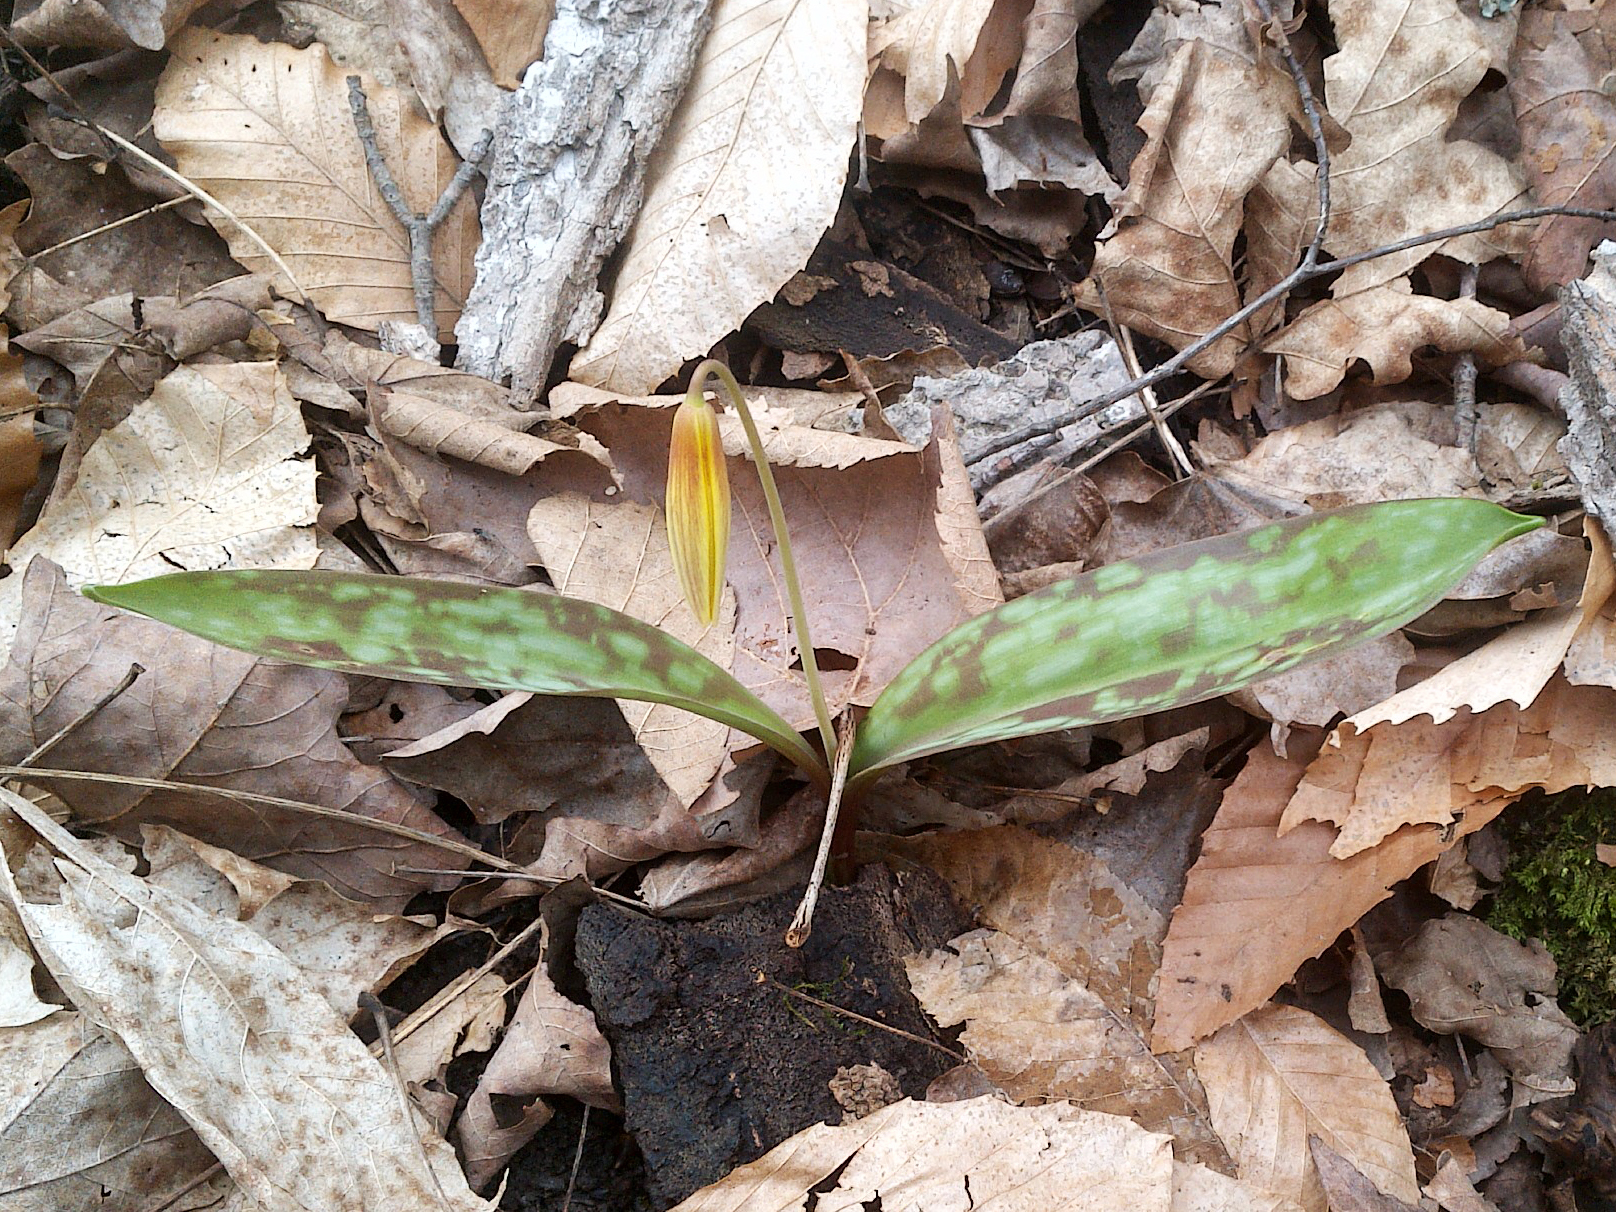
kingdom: Plantae
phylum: Tracheophyta
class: Liliopsida
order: Liliales
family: Liliaceae
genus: Erythronium
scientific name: Erythronium americanum
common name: Yellow adder's-tongue
